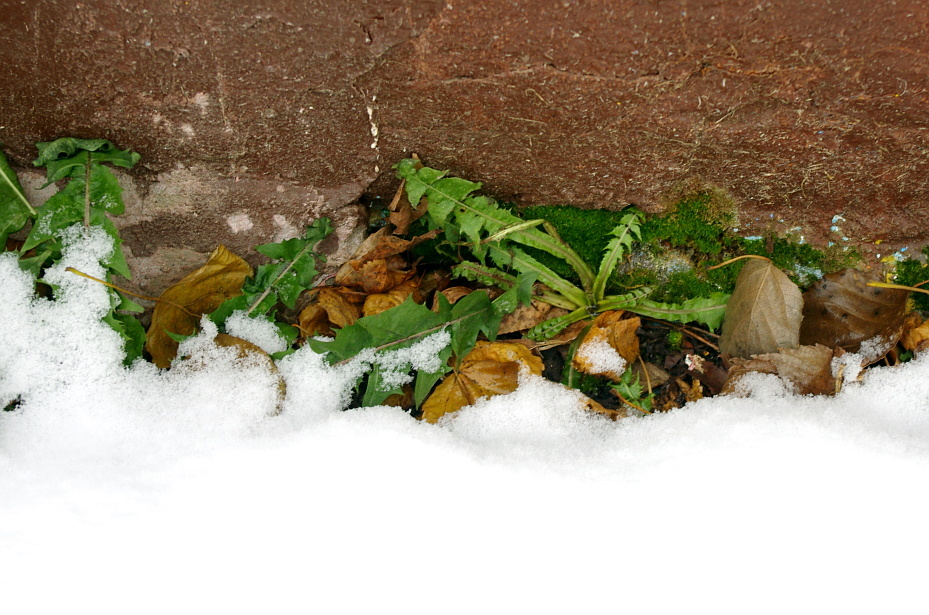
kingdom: Plantae
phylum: Tracheophyta
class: Magnoliopsida
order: Asterales
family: Asteraceae
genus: Taraxacum
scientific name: Taraxacum officinale
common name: Common dandelion
